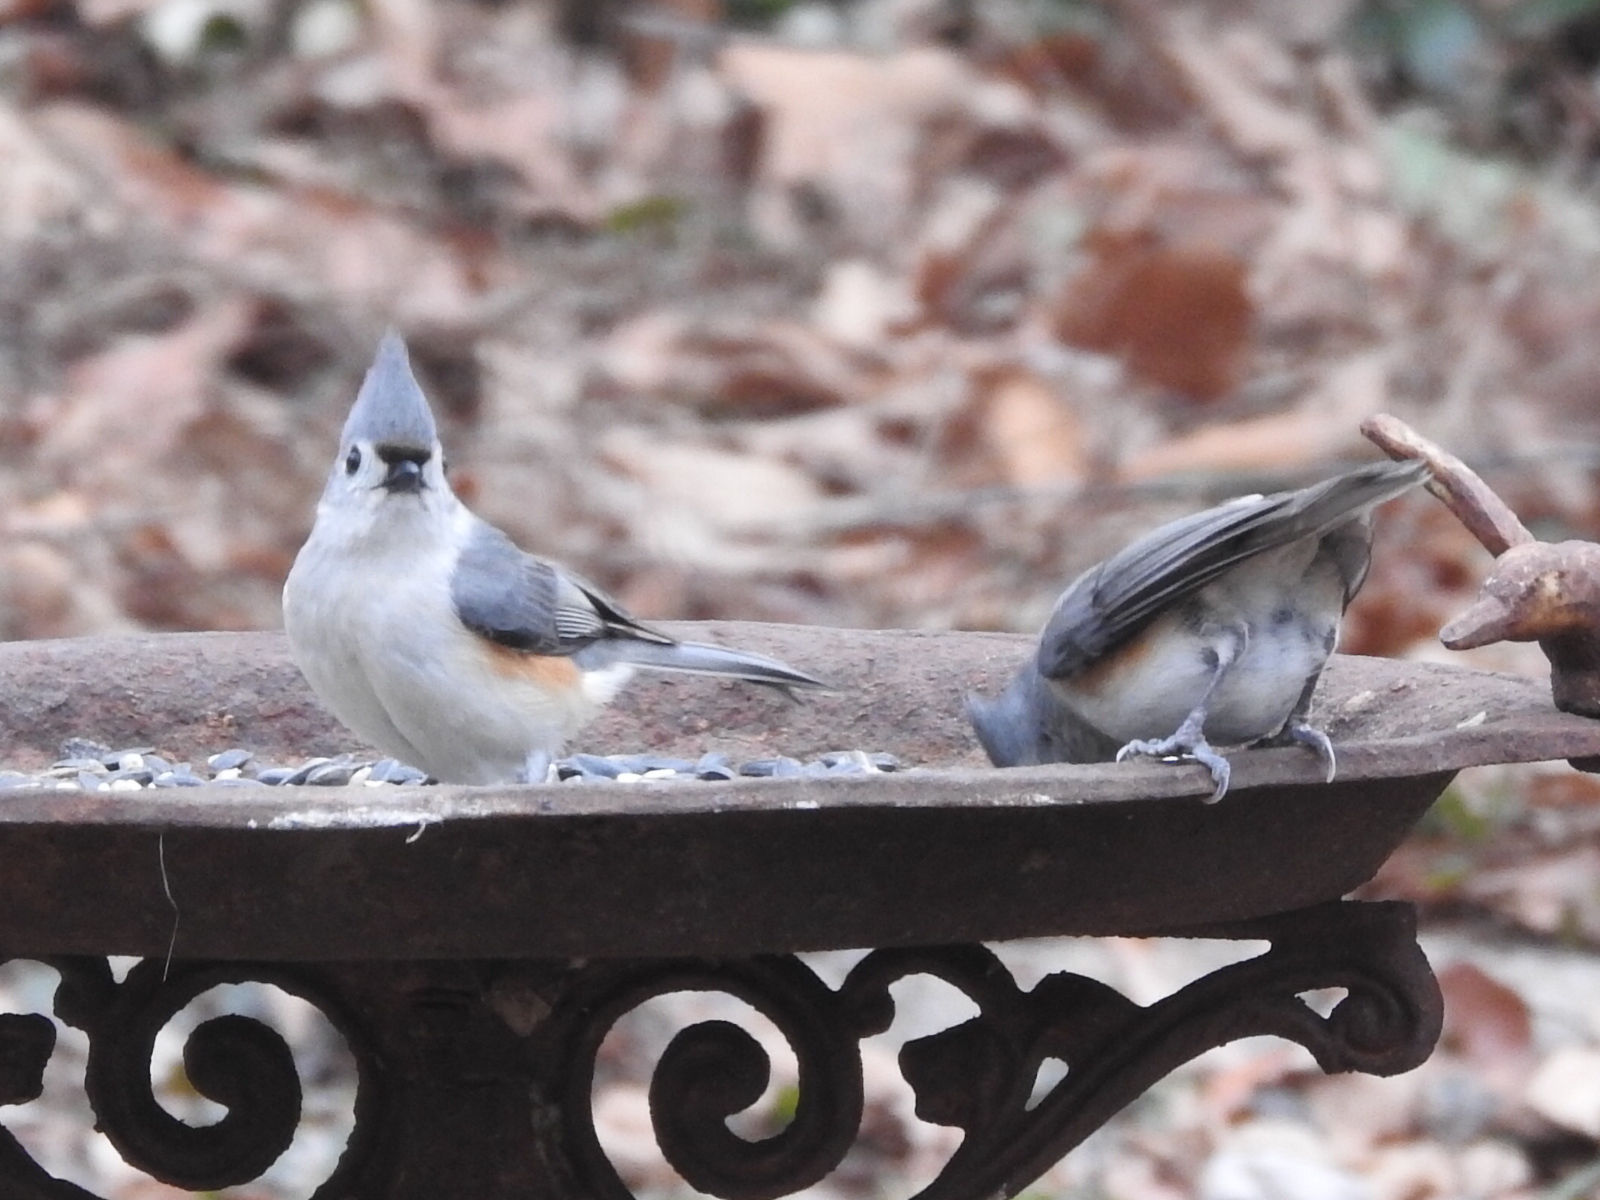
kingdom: Animalia
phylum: Chordata
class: Aves
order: Passeriformes
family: Paridae
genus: Baeolophus
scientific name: Baeolophus bicolor
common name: Tufted titmouse
